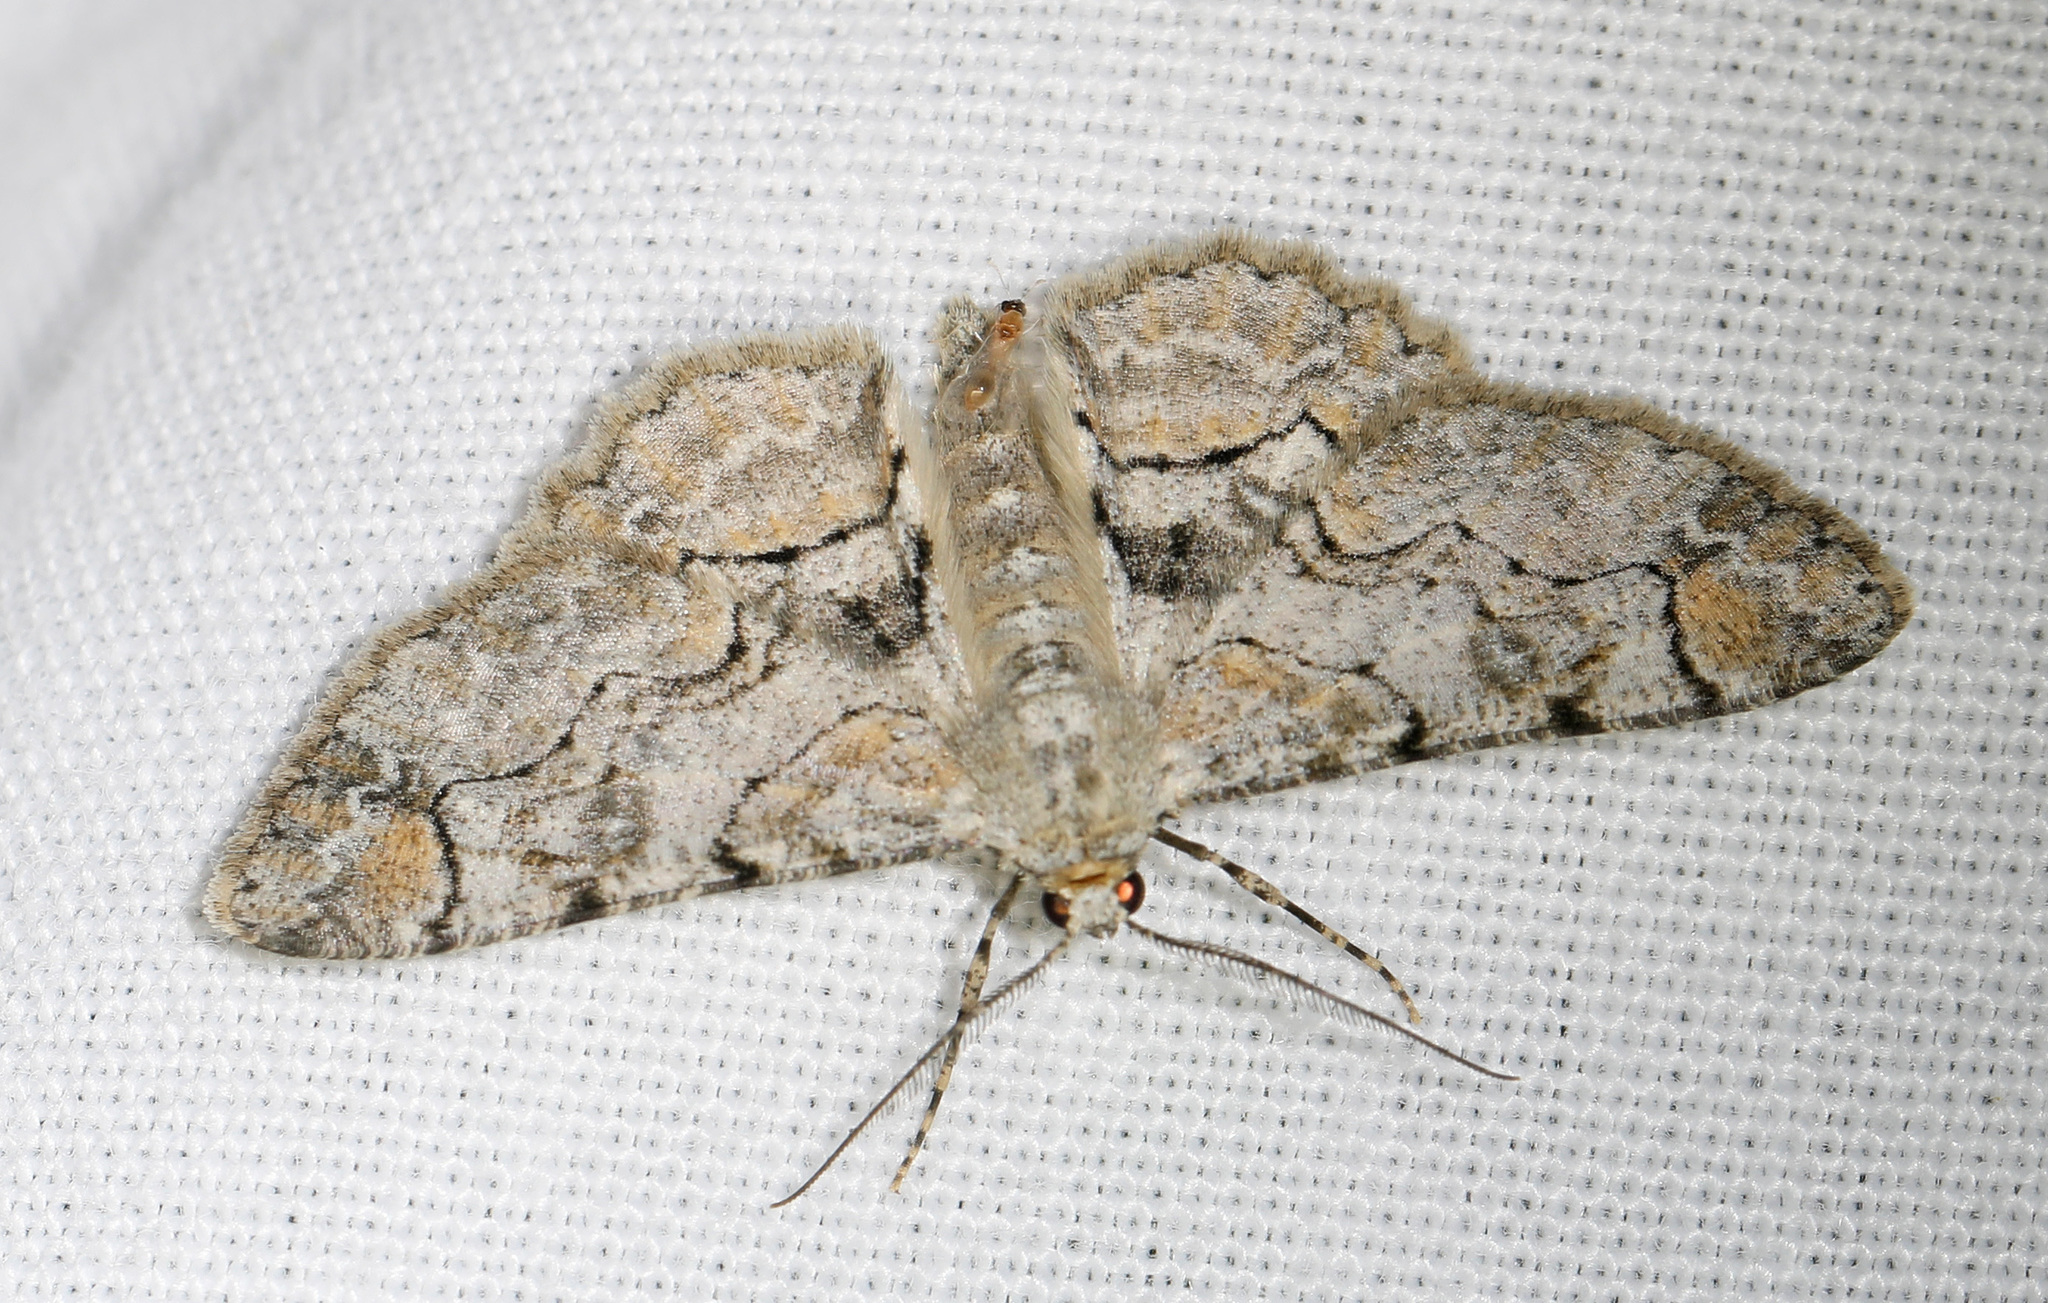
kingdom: Animalia
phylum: Arthropoda
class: Insecta
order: Lepidoptera
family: Geometridae
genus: Iridopsis
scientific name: Iridopsis larvaria
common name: Bent-line gray
